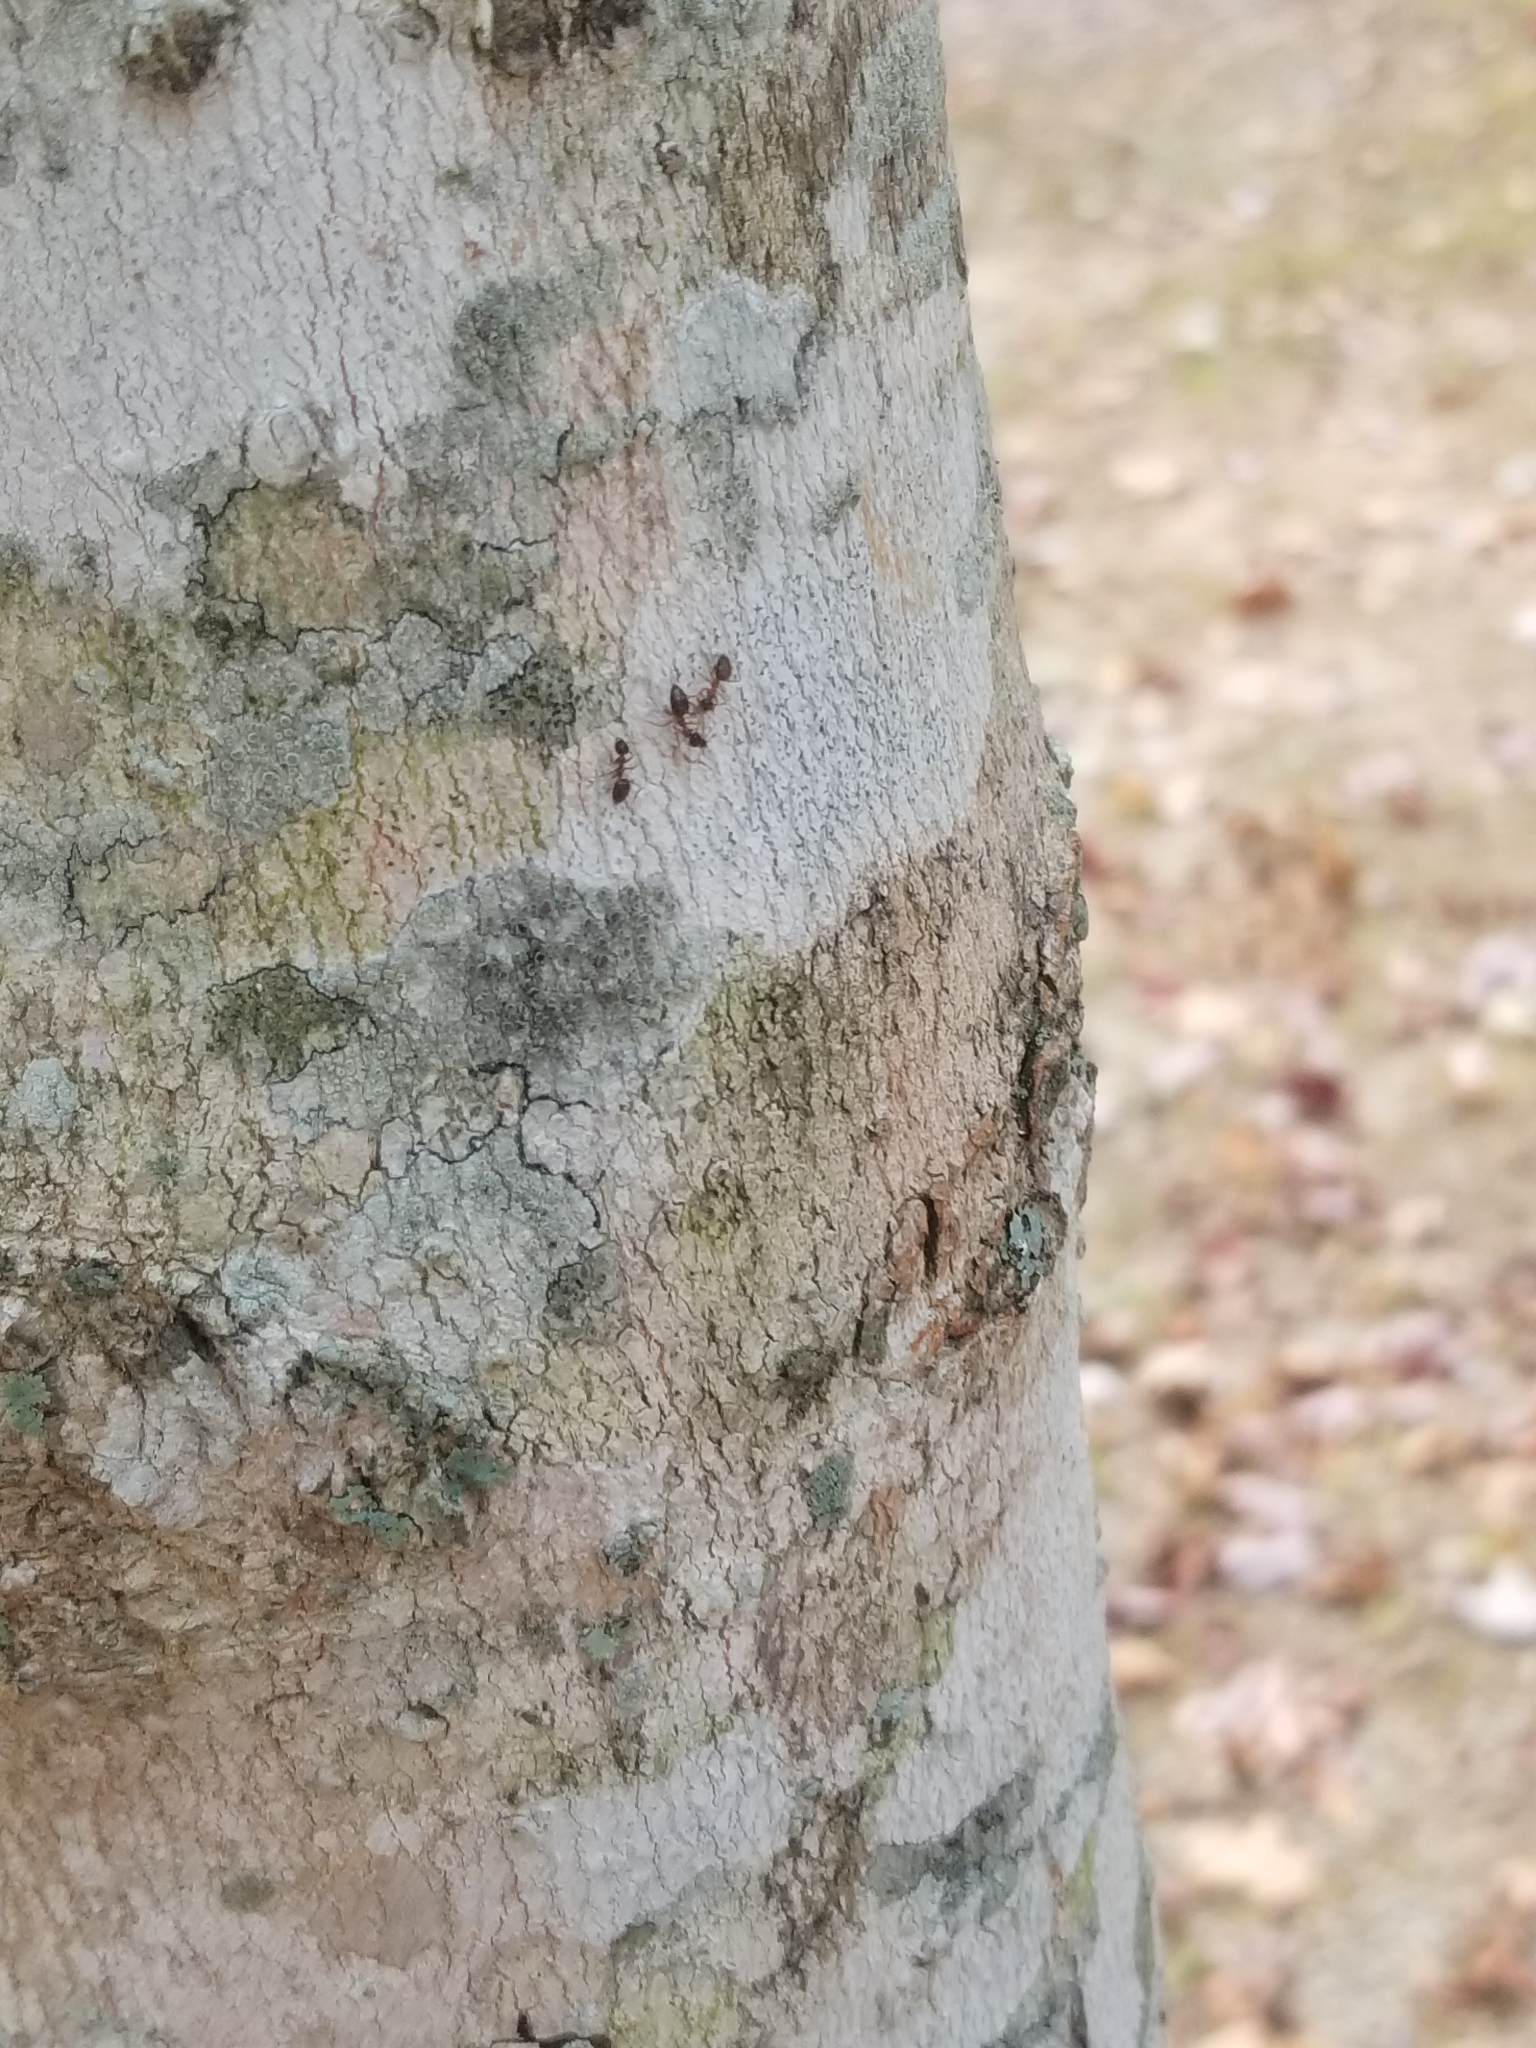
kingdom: Animalia
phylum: Arthropoda
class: Insecta
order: Hymenoptera
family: Formicidae
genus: Prenolepis
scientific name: Prenolepis imparis
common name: Small honey ant
